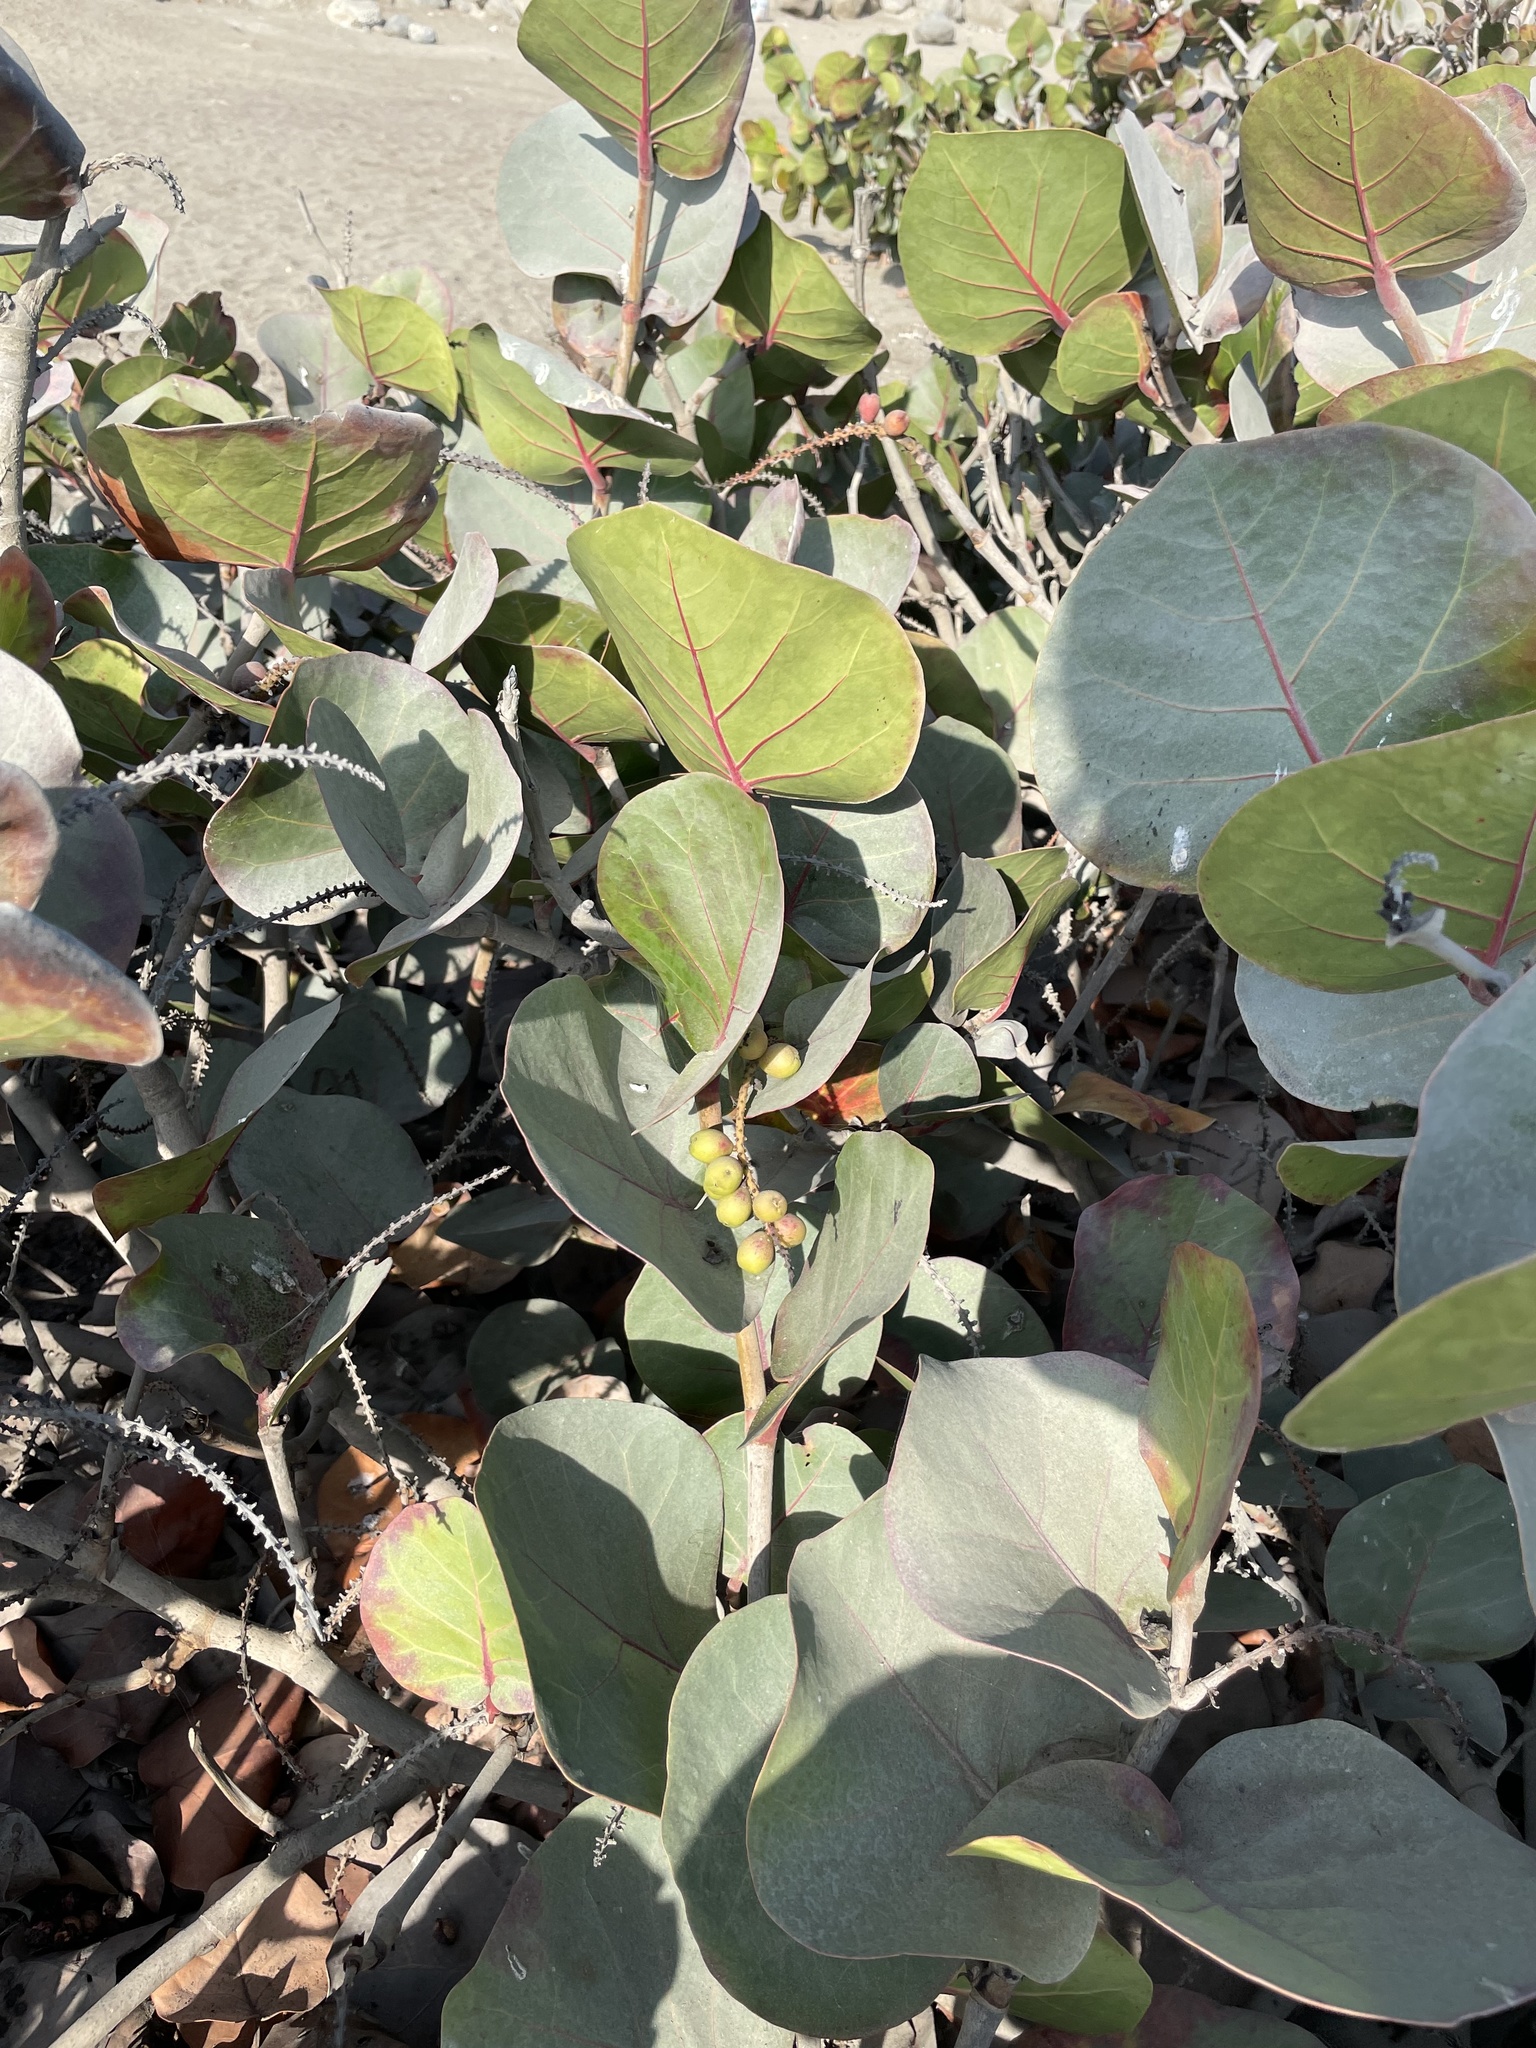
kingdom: Plantae
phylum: Tracheophyta
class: Magnoliopsida
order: Caryophyllales
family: Polygonaceae
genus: Coccoloba
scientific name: Coccoloba uvifera
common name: Seagrape
